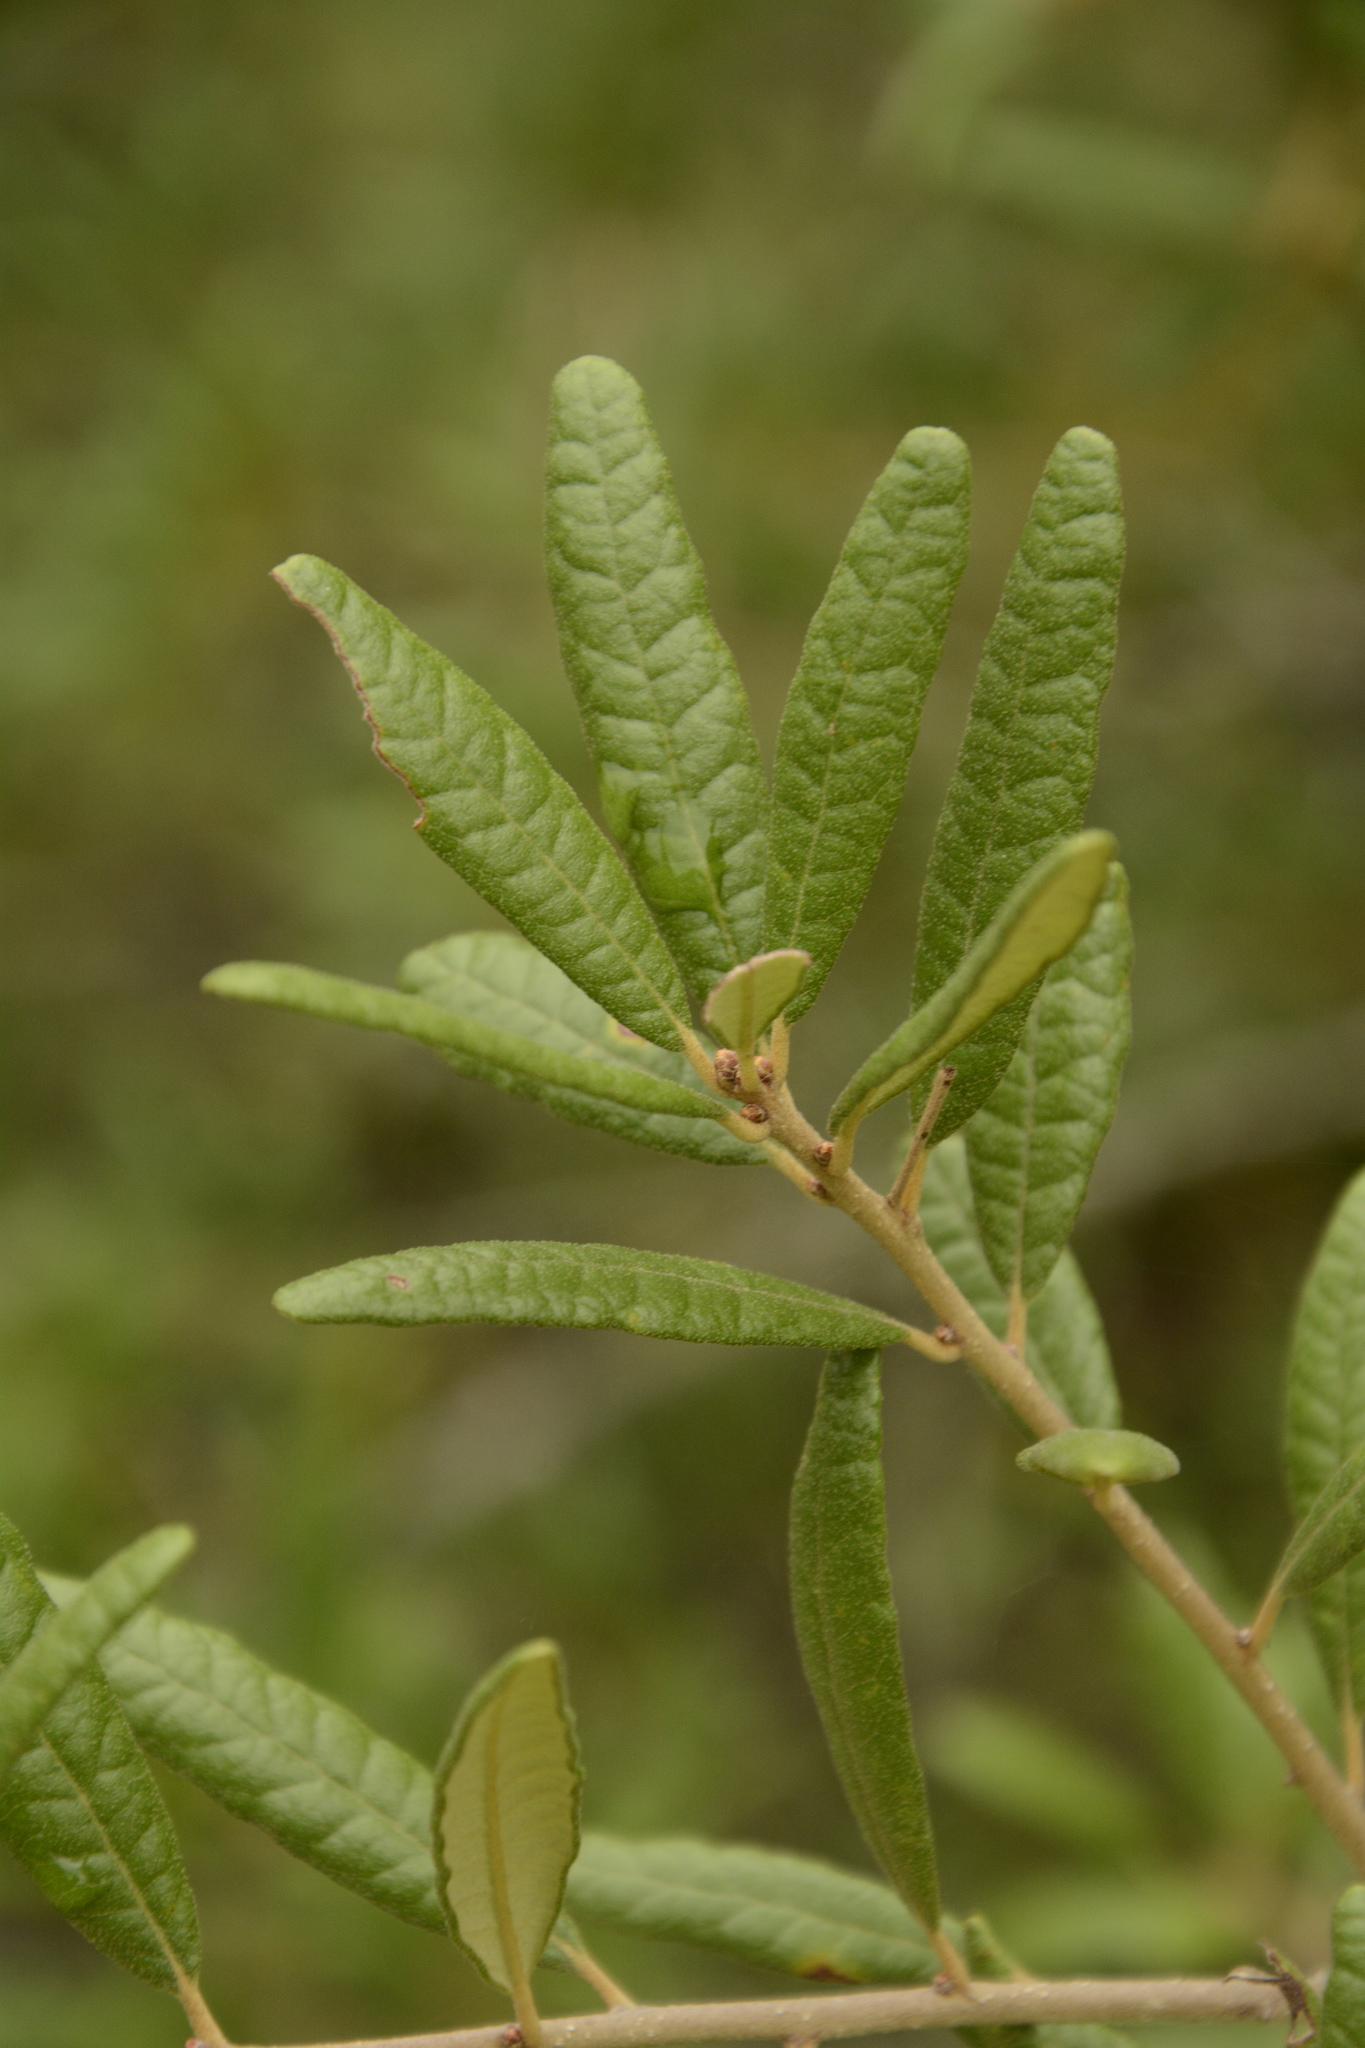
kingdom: Plantae
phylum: Tracheophyta
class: Magnoliopsida
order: Fagales
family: Fagaceae
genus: Quercus
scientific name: Quercus geminata
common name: Sand live oak
